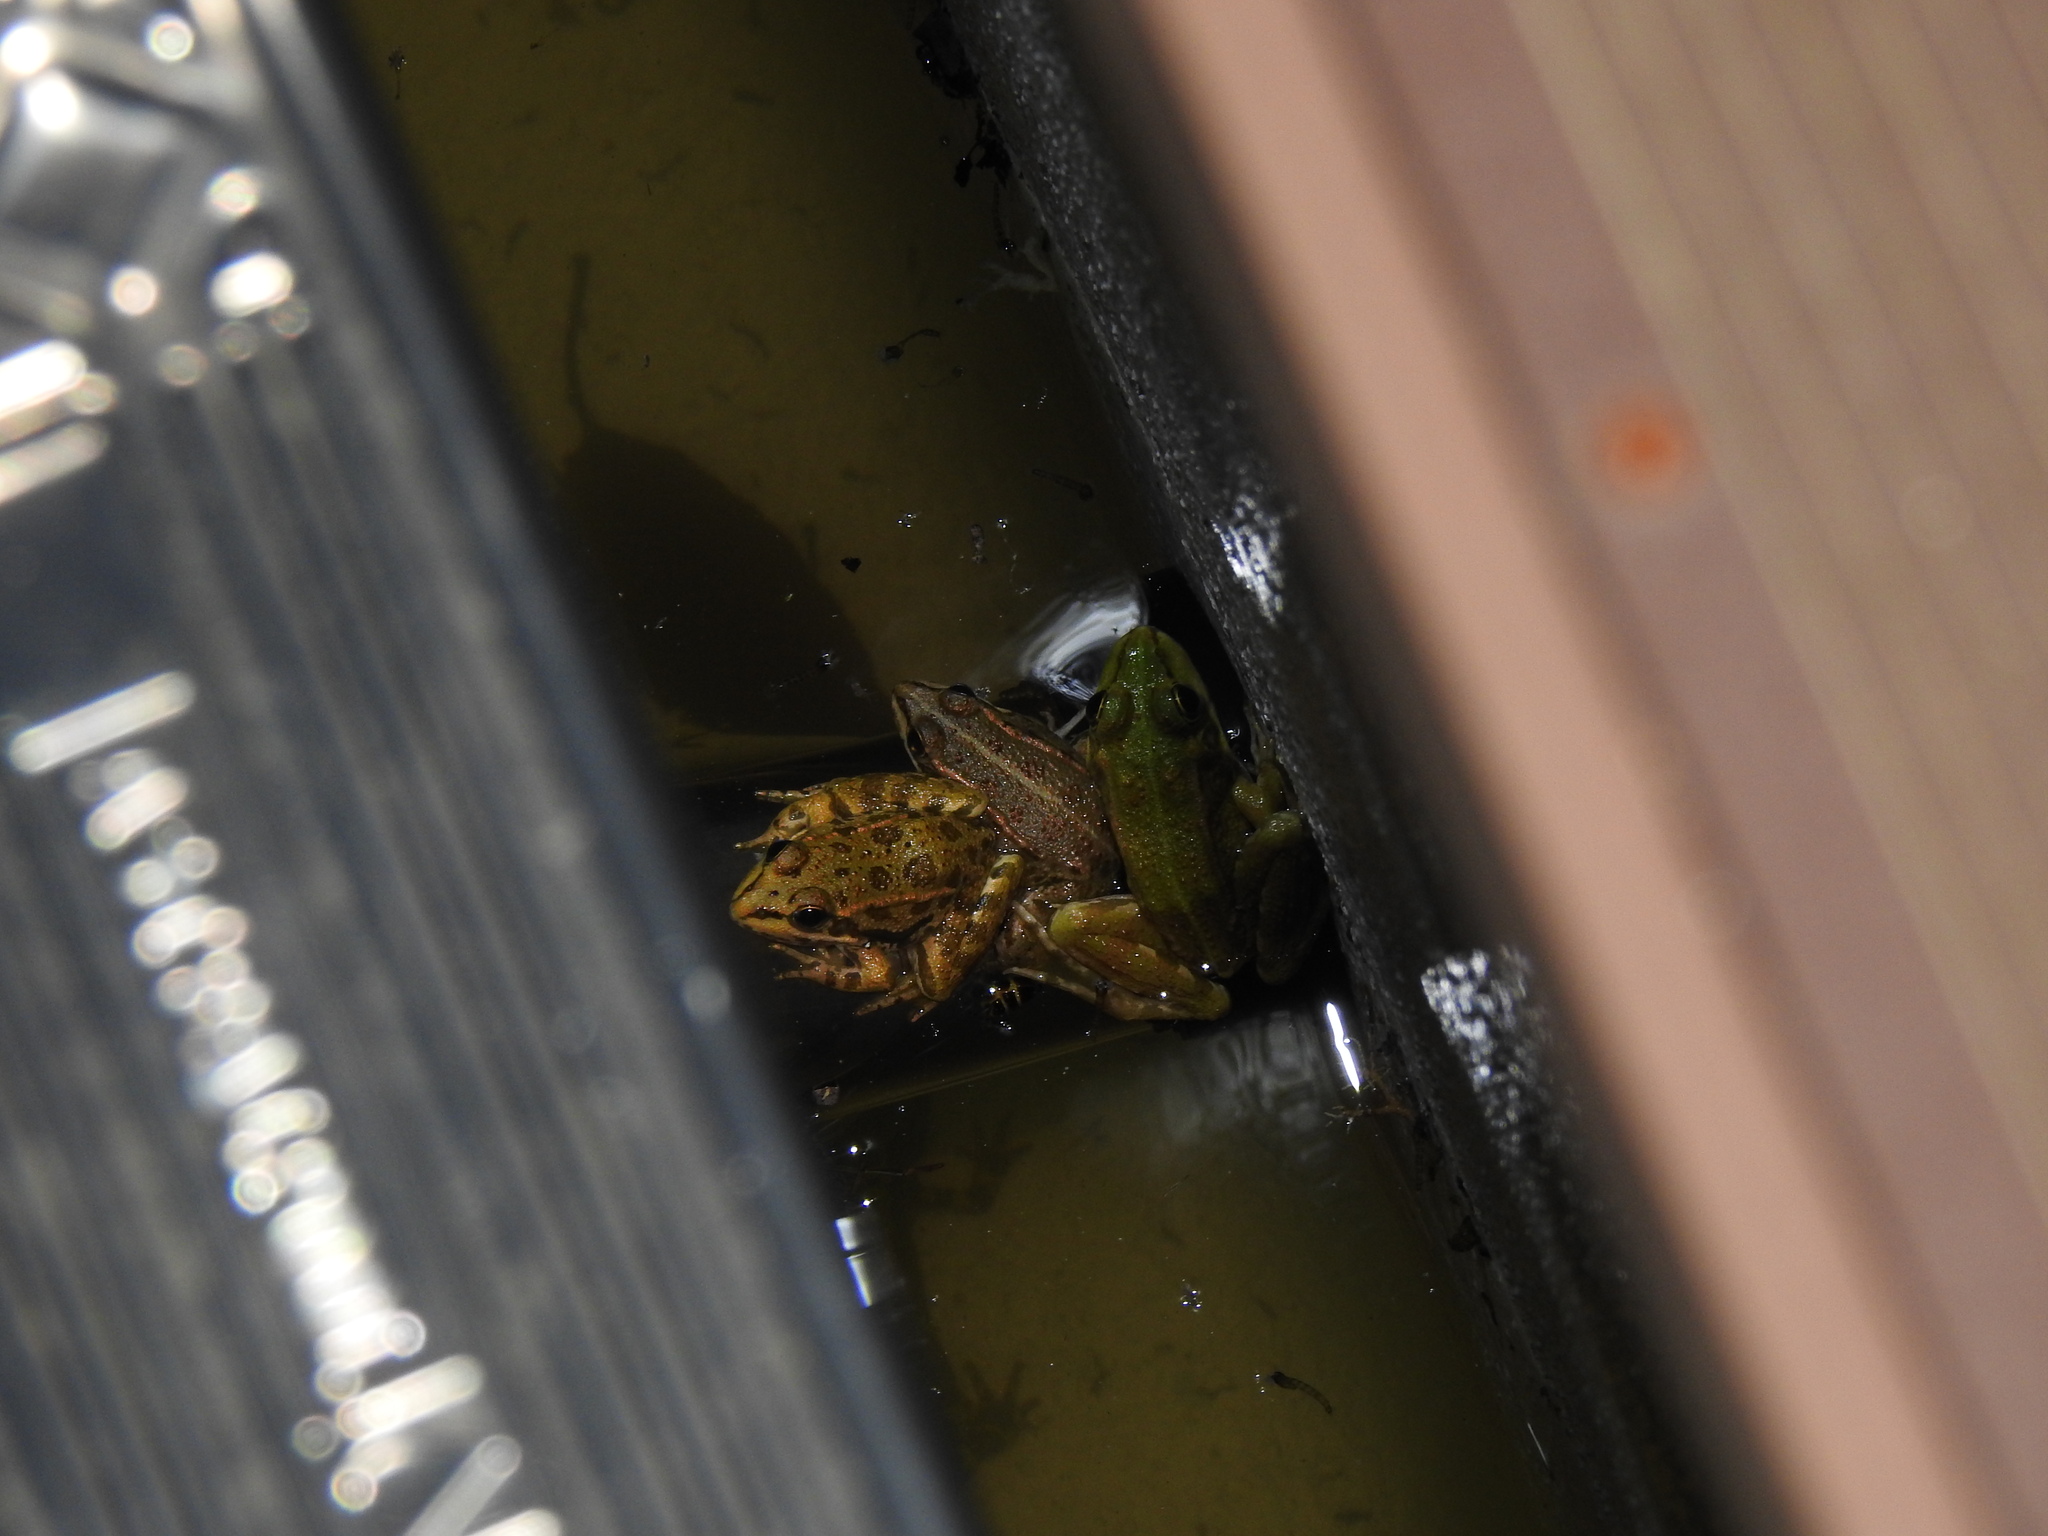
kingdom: Animalia
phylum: Chordata
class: Amphibia
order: Anura
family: Ranidae
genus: Pelophylax
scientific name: Pelophylax perezi
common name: Perez's frog
